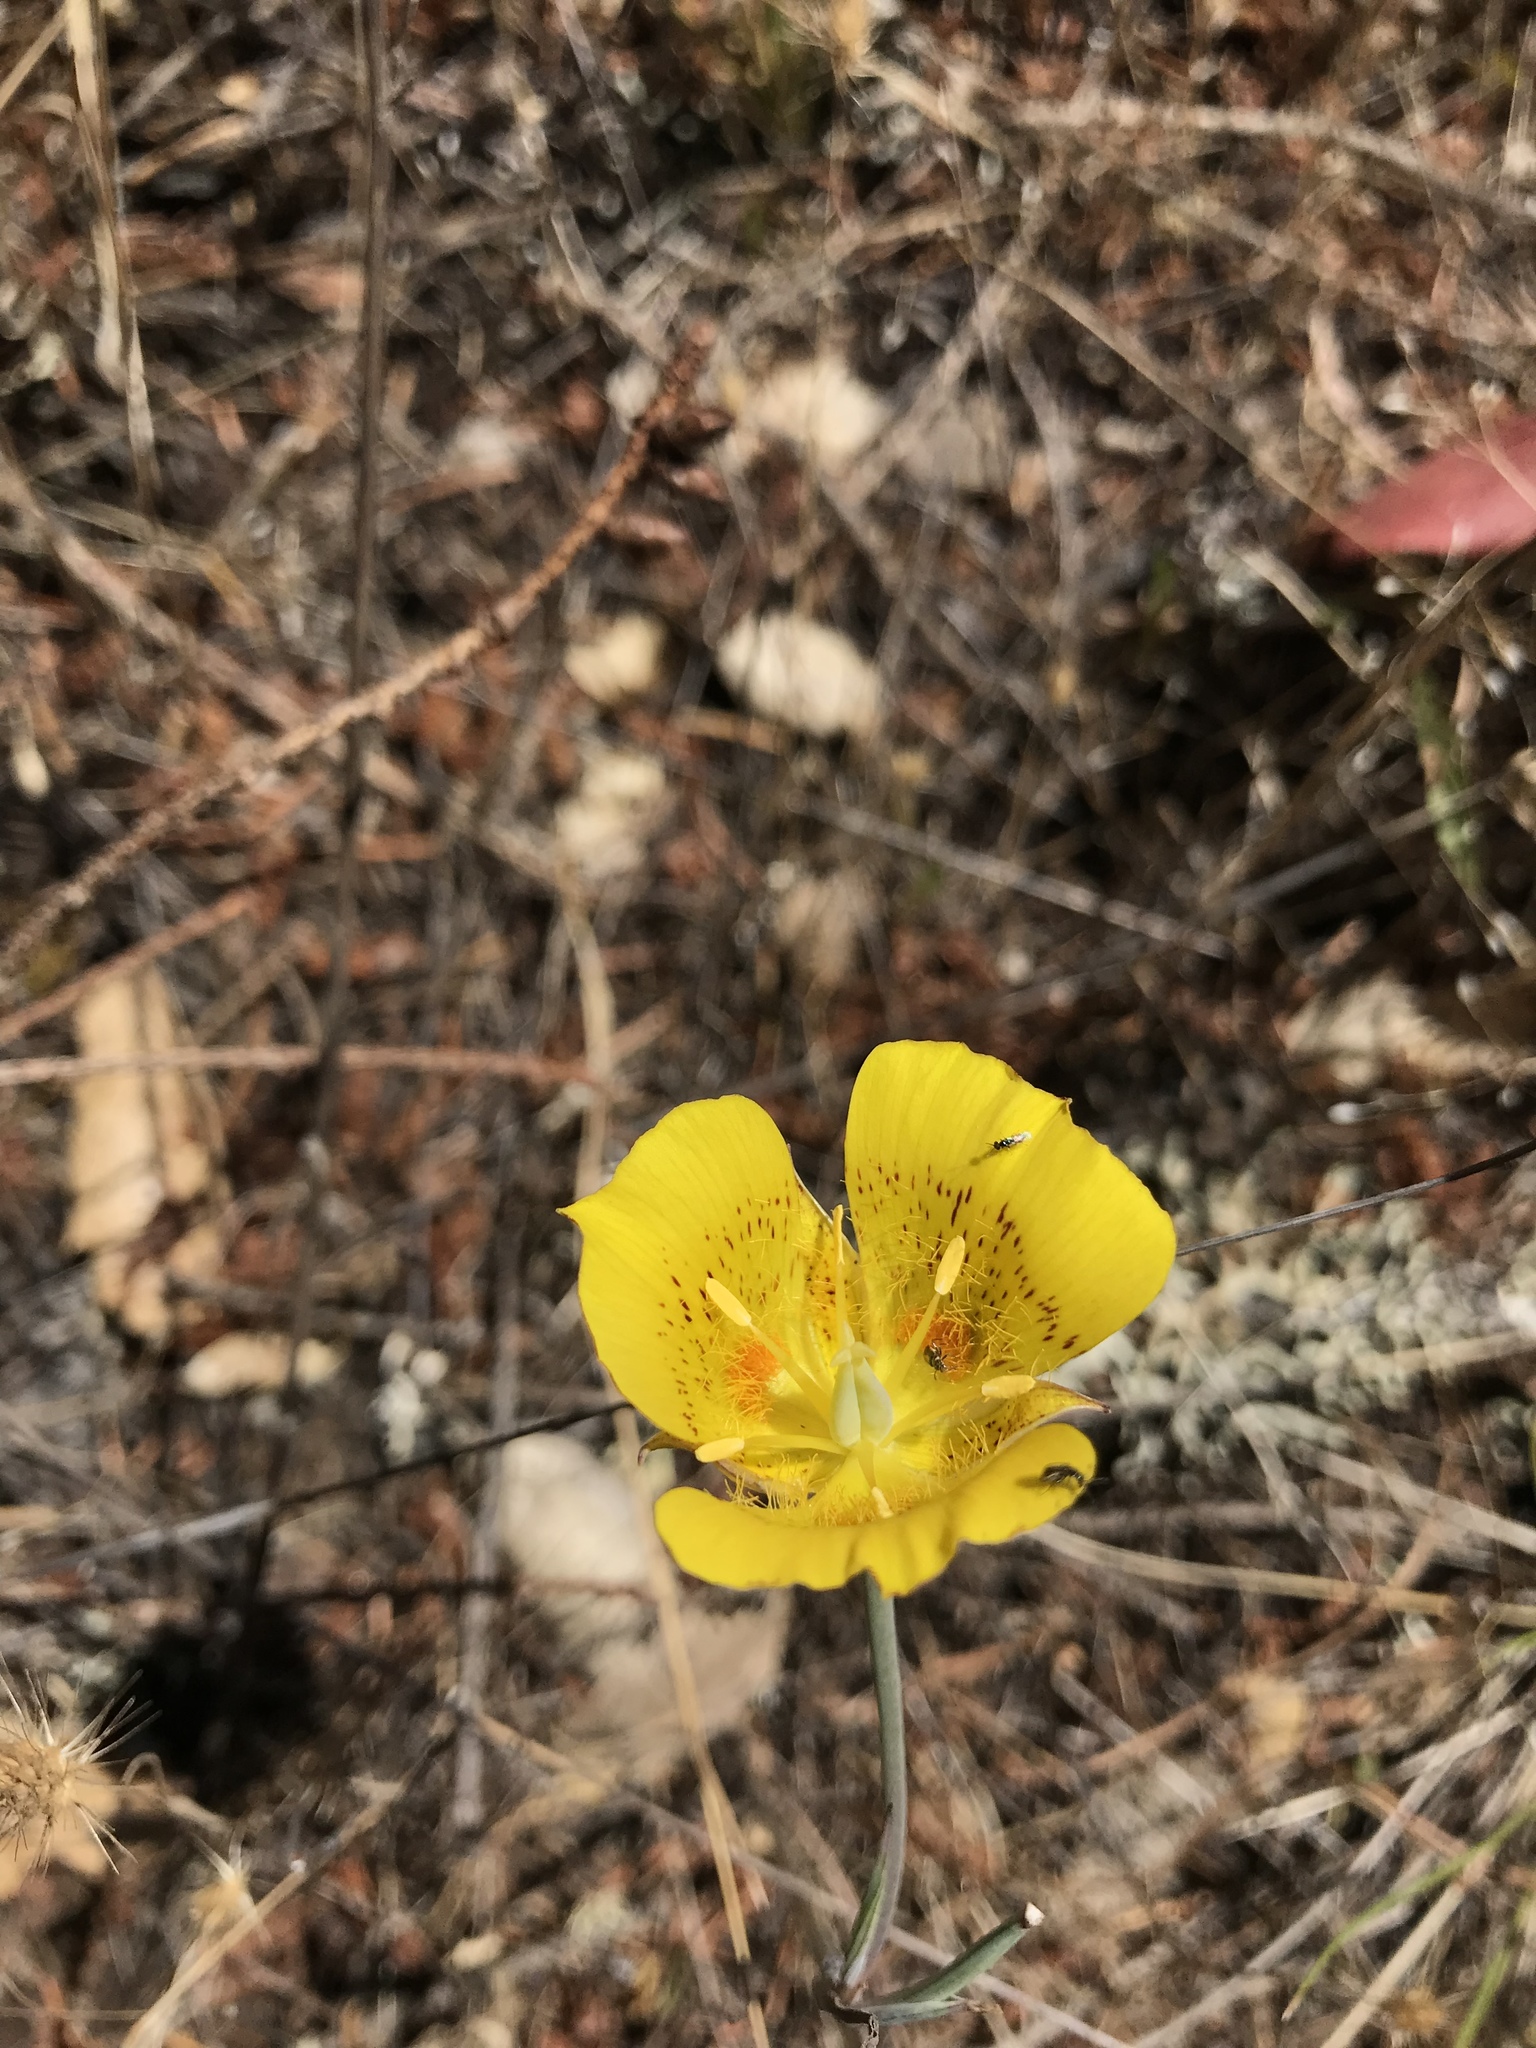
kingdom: Plantae
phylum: Tracheophyta
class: Liliopsida
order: Liliales
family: Liliaceae
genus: Calochortus
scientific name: Calochortus luteus
